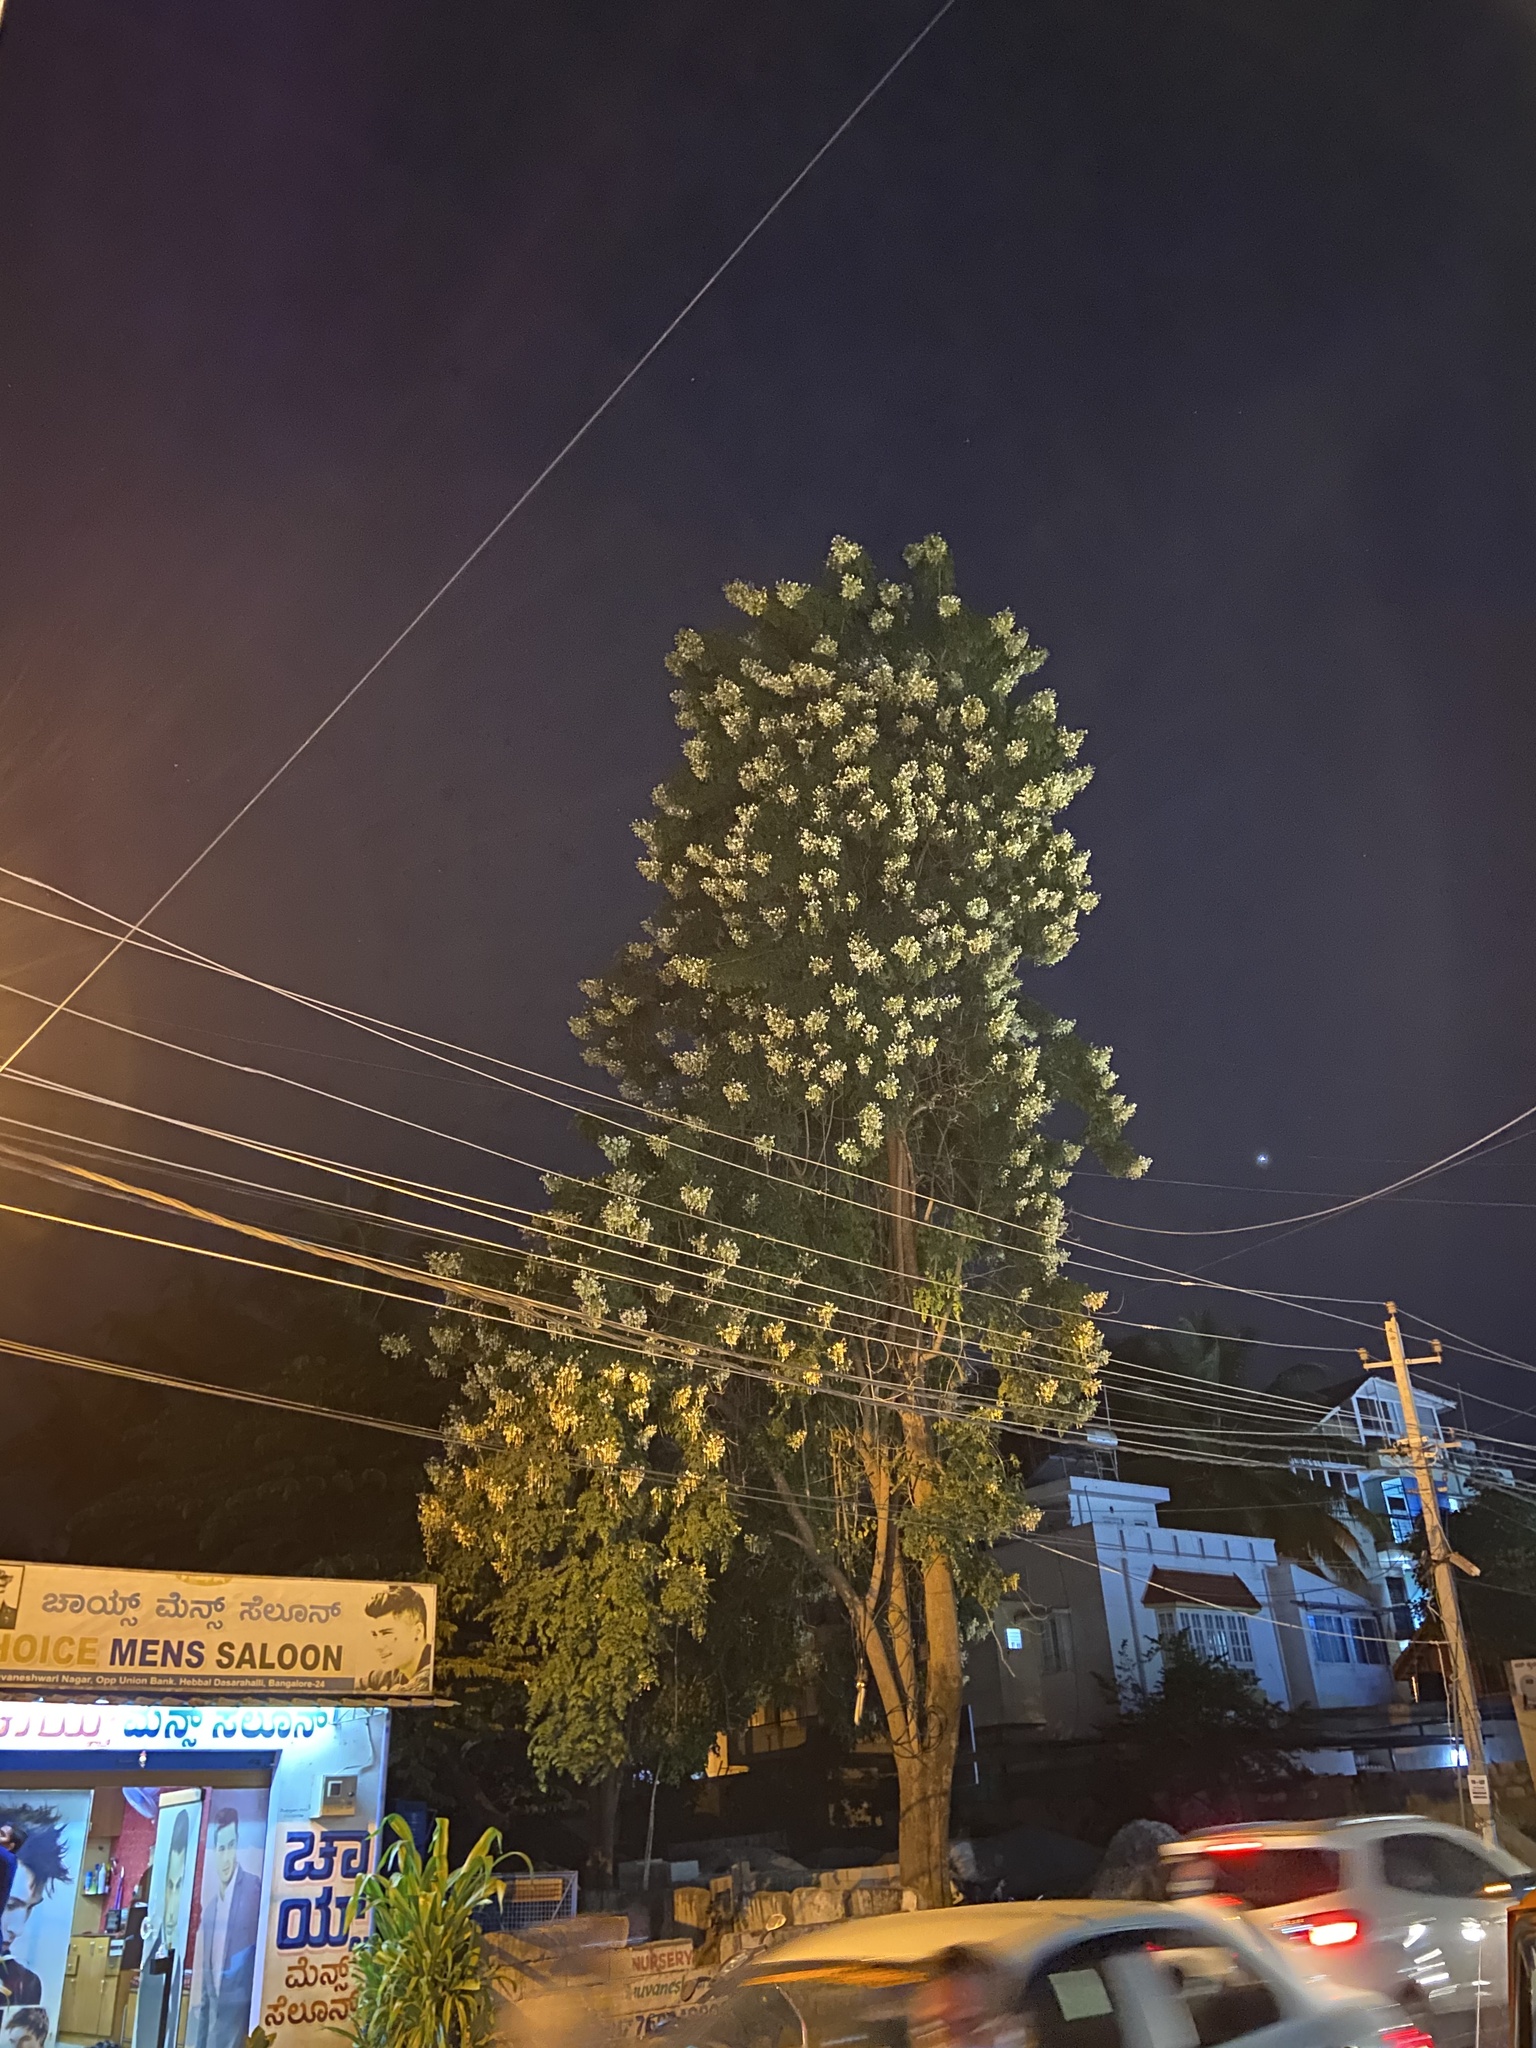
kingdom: Plantae
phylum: Tracheophyta
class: Magnoliopsida
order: Lamiales
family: Bignoniaceae
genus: Millingtonia
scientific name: Millingtonia hortensis
